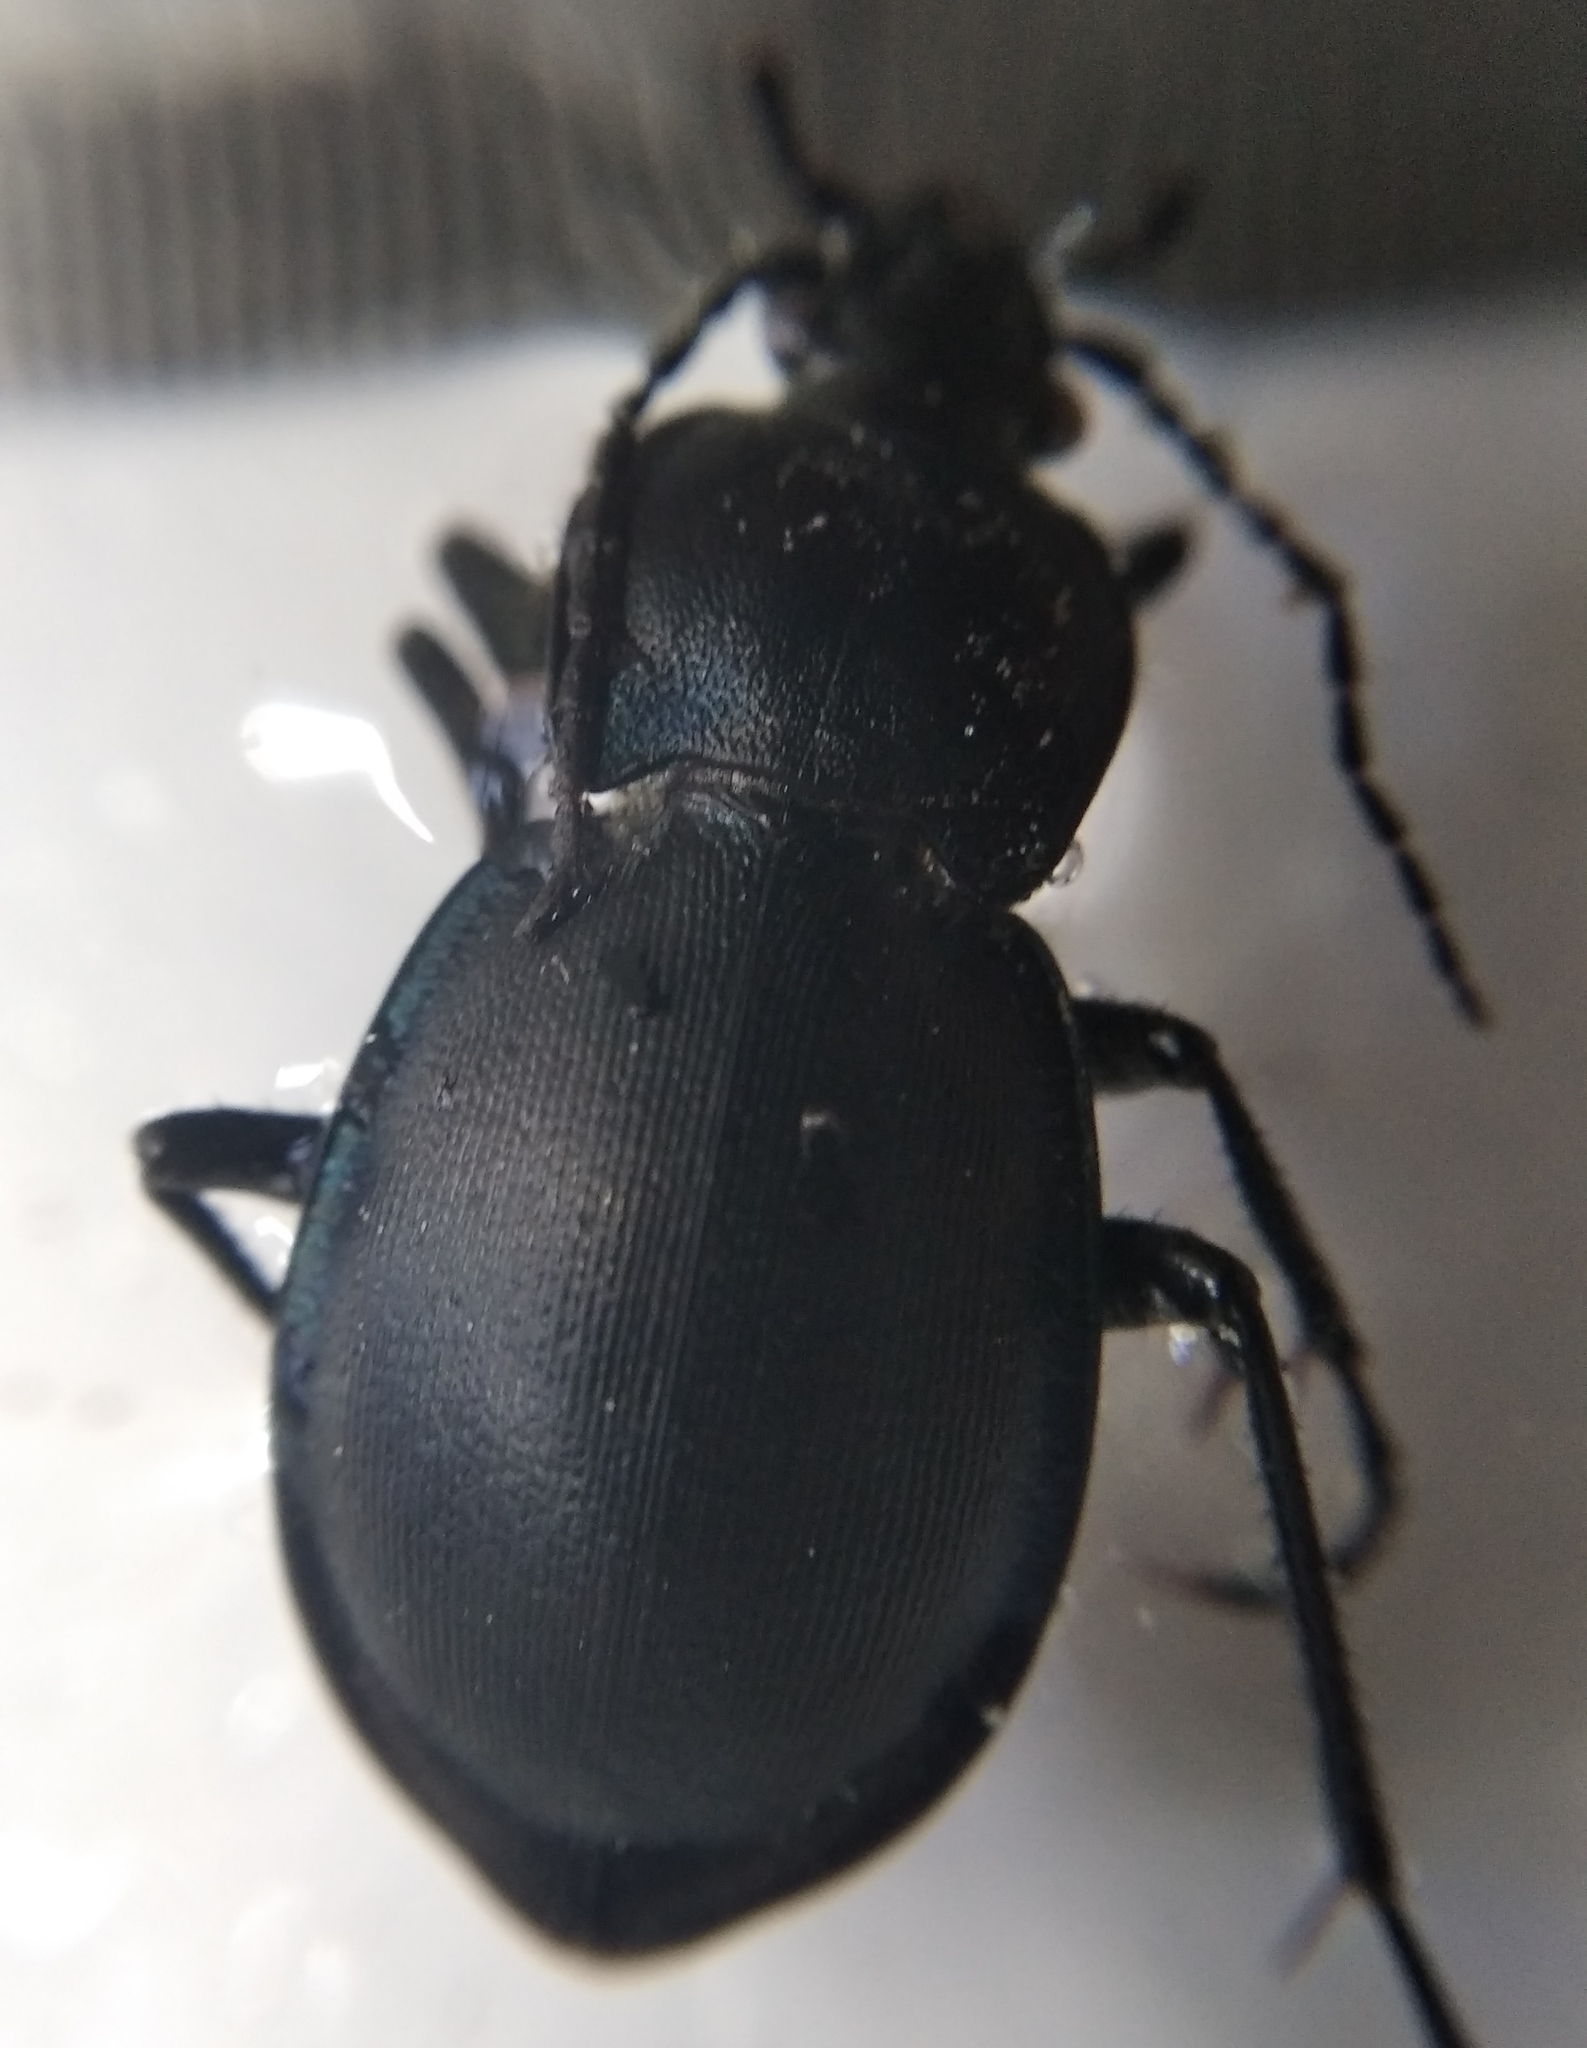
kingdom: Animalia
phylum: Arthropoda
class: Insecta
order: Coleoptera
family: Carabidae
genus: Carabus
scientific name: Carabus convexus
